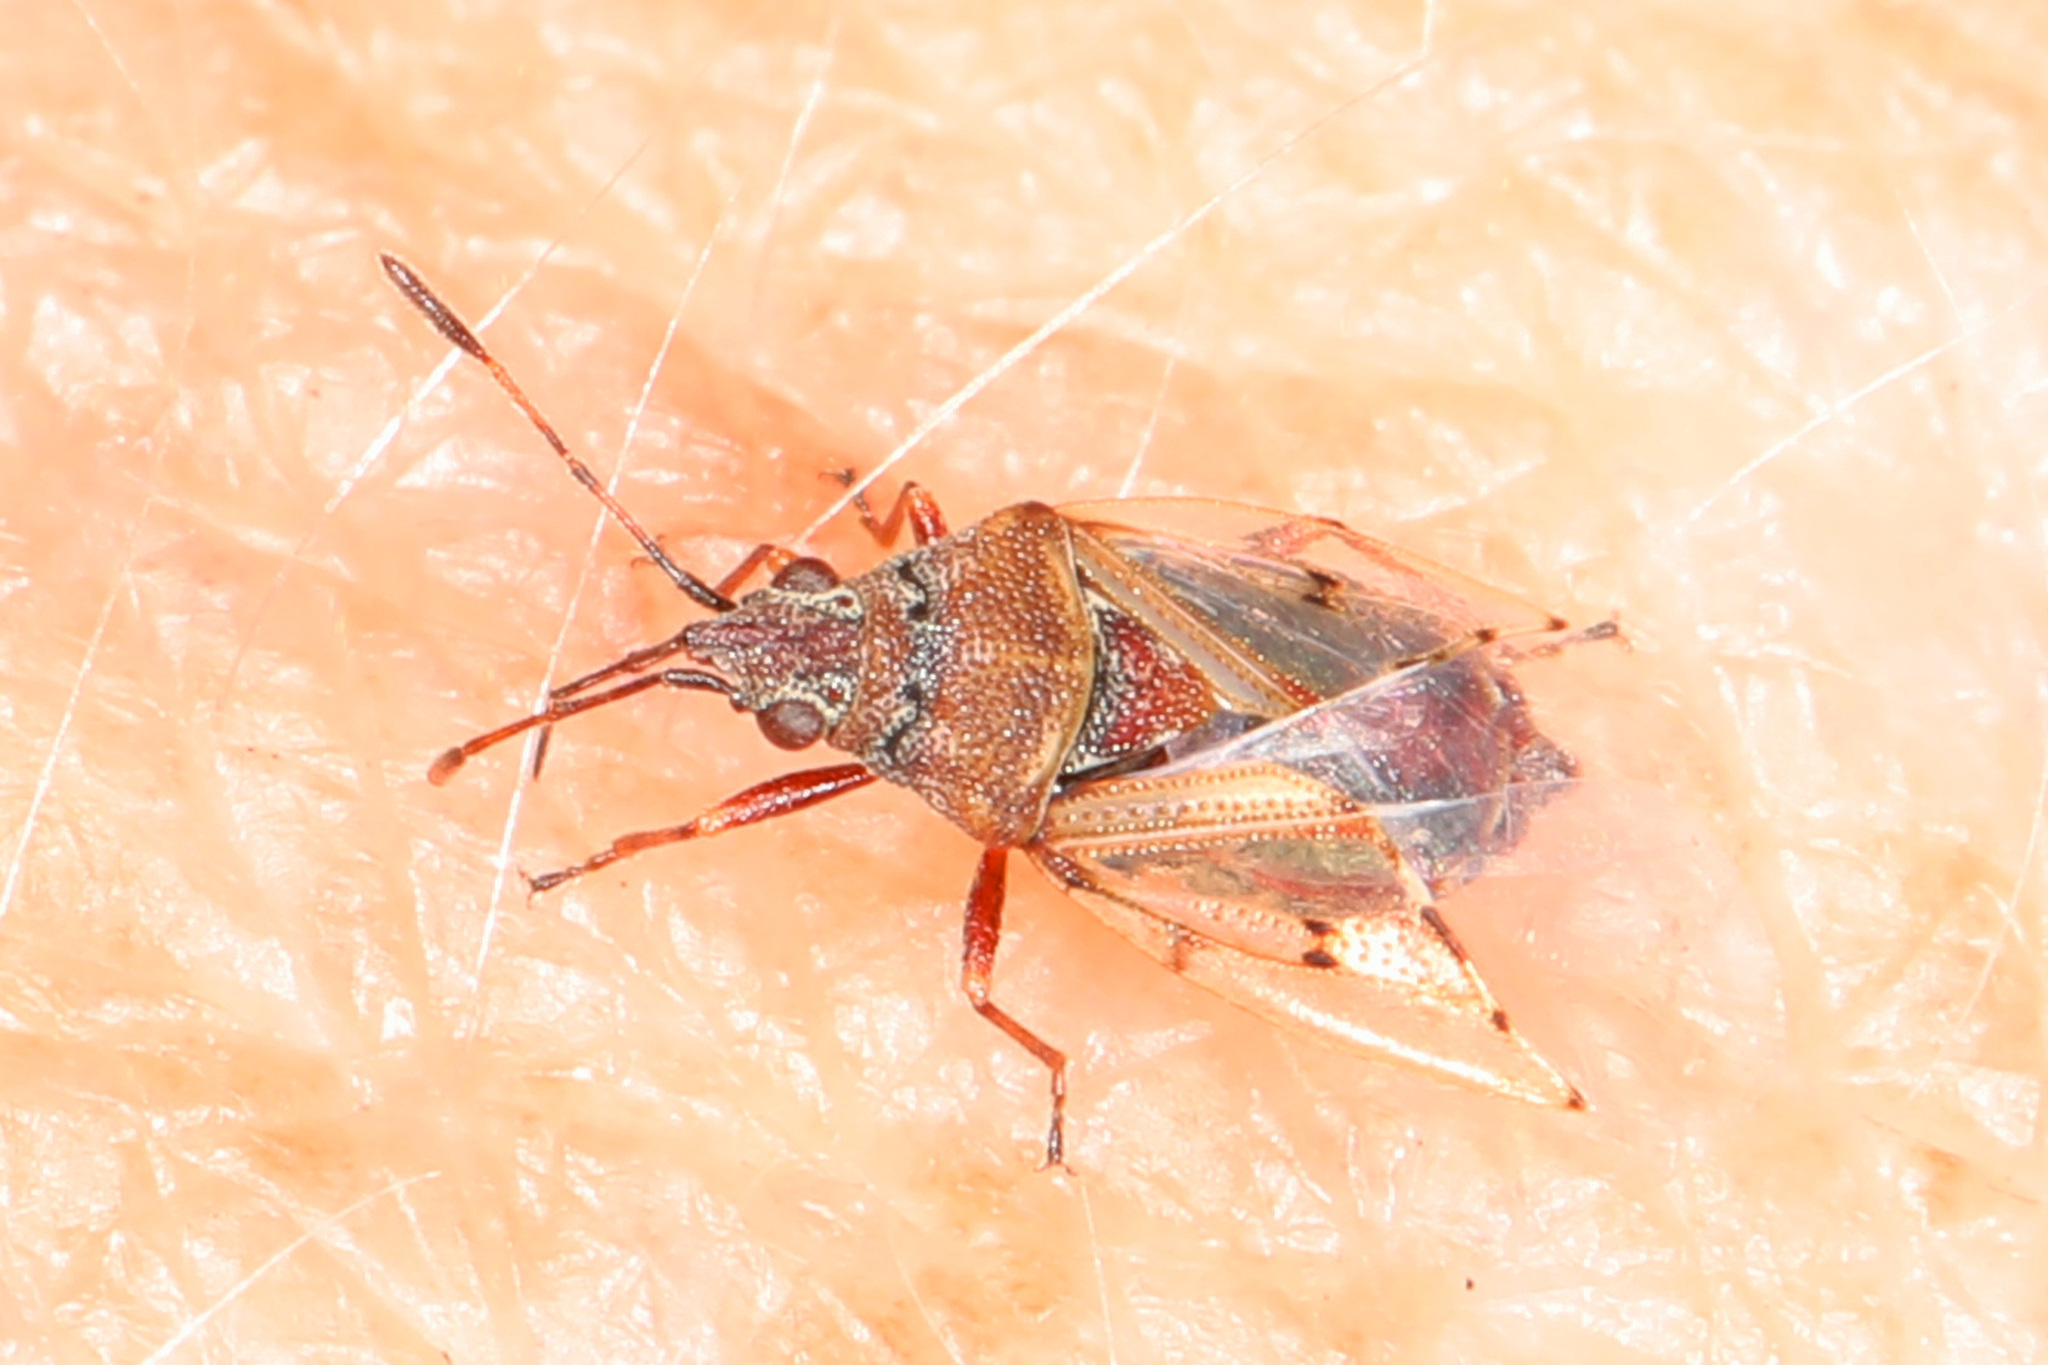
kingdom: Animalia
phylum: Arthropoda
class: Insecta
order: Hemiptera
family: Lygaeidae
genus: Kleidocerys
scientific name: Kleidocerys resedae
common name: Birch catkin bug
